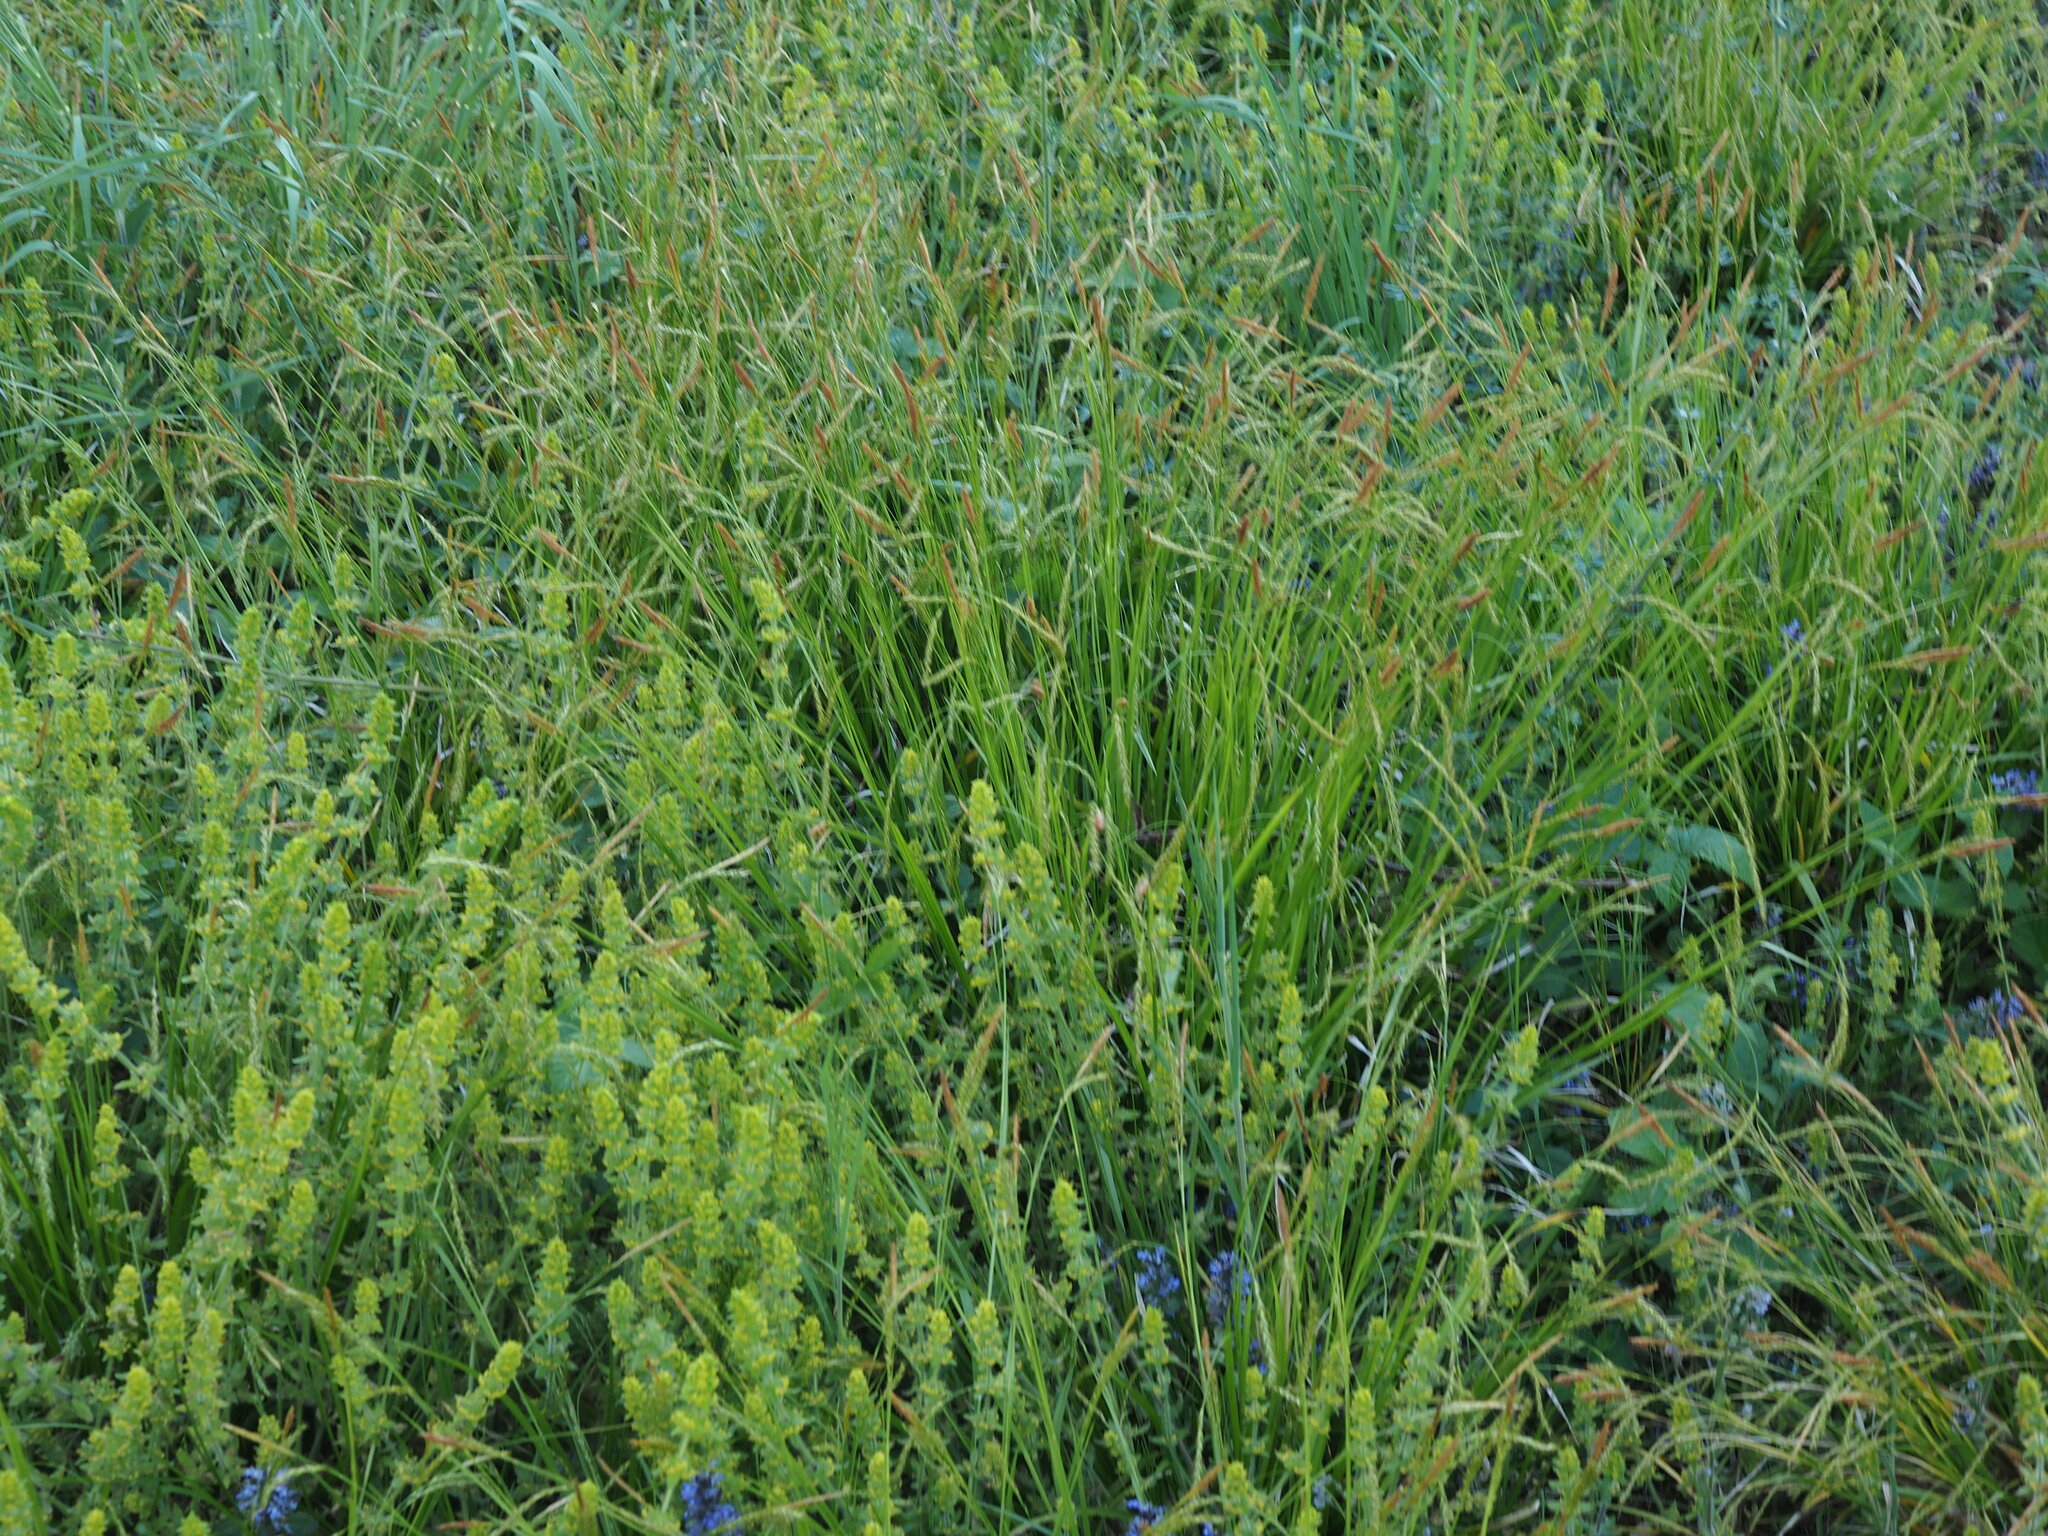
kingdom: Plantae
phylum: Tracheophyta
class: Magnoliopsida
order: Gentianales
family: Rubiaceae
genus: Cruciata
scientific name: Cruciata laevipes
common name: Crosswort
